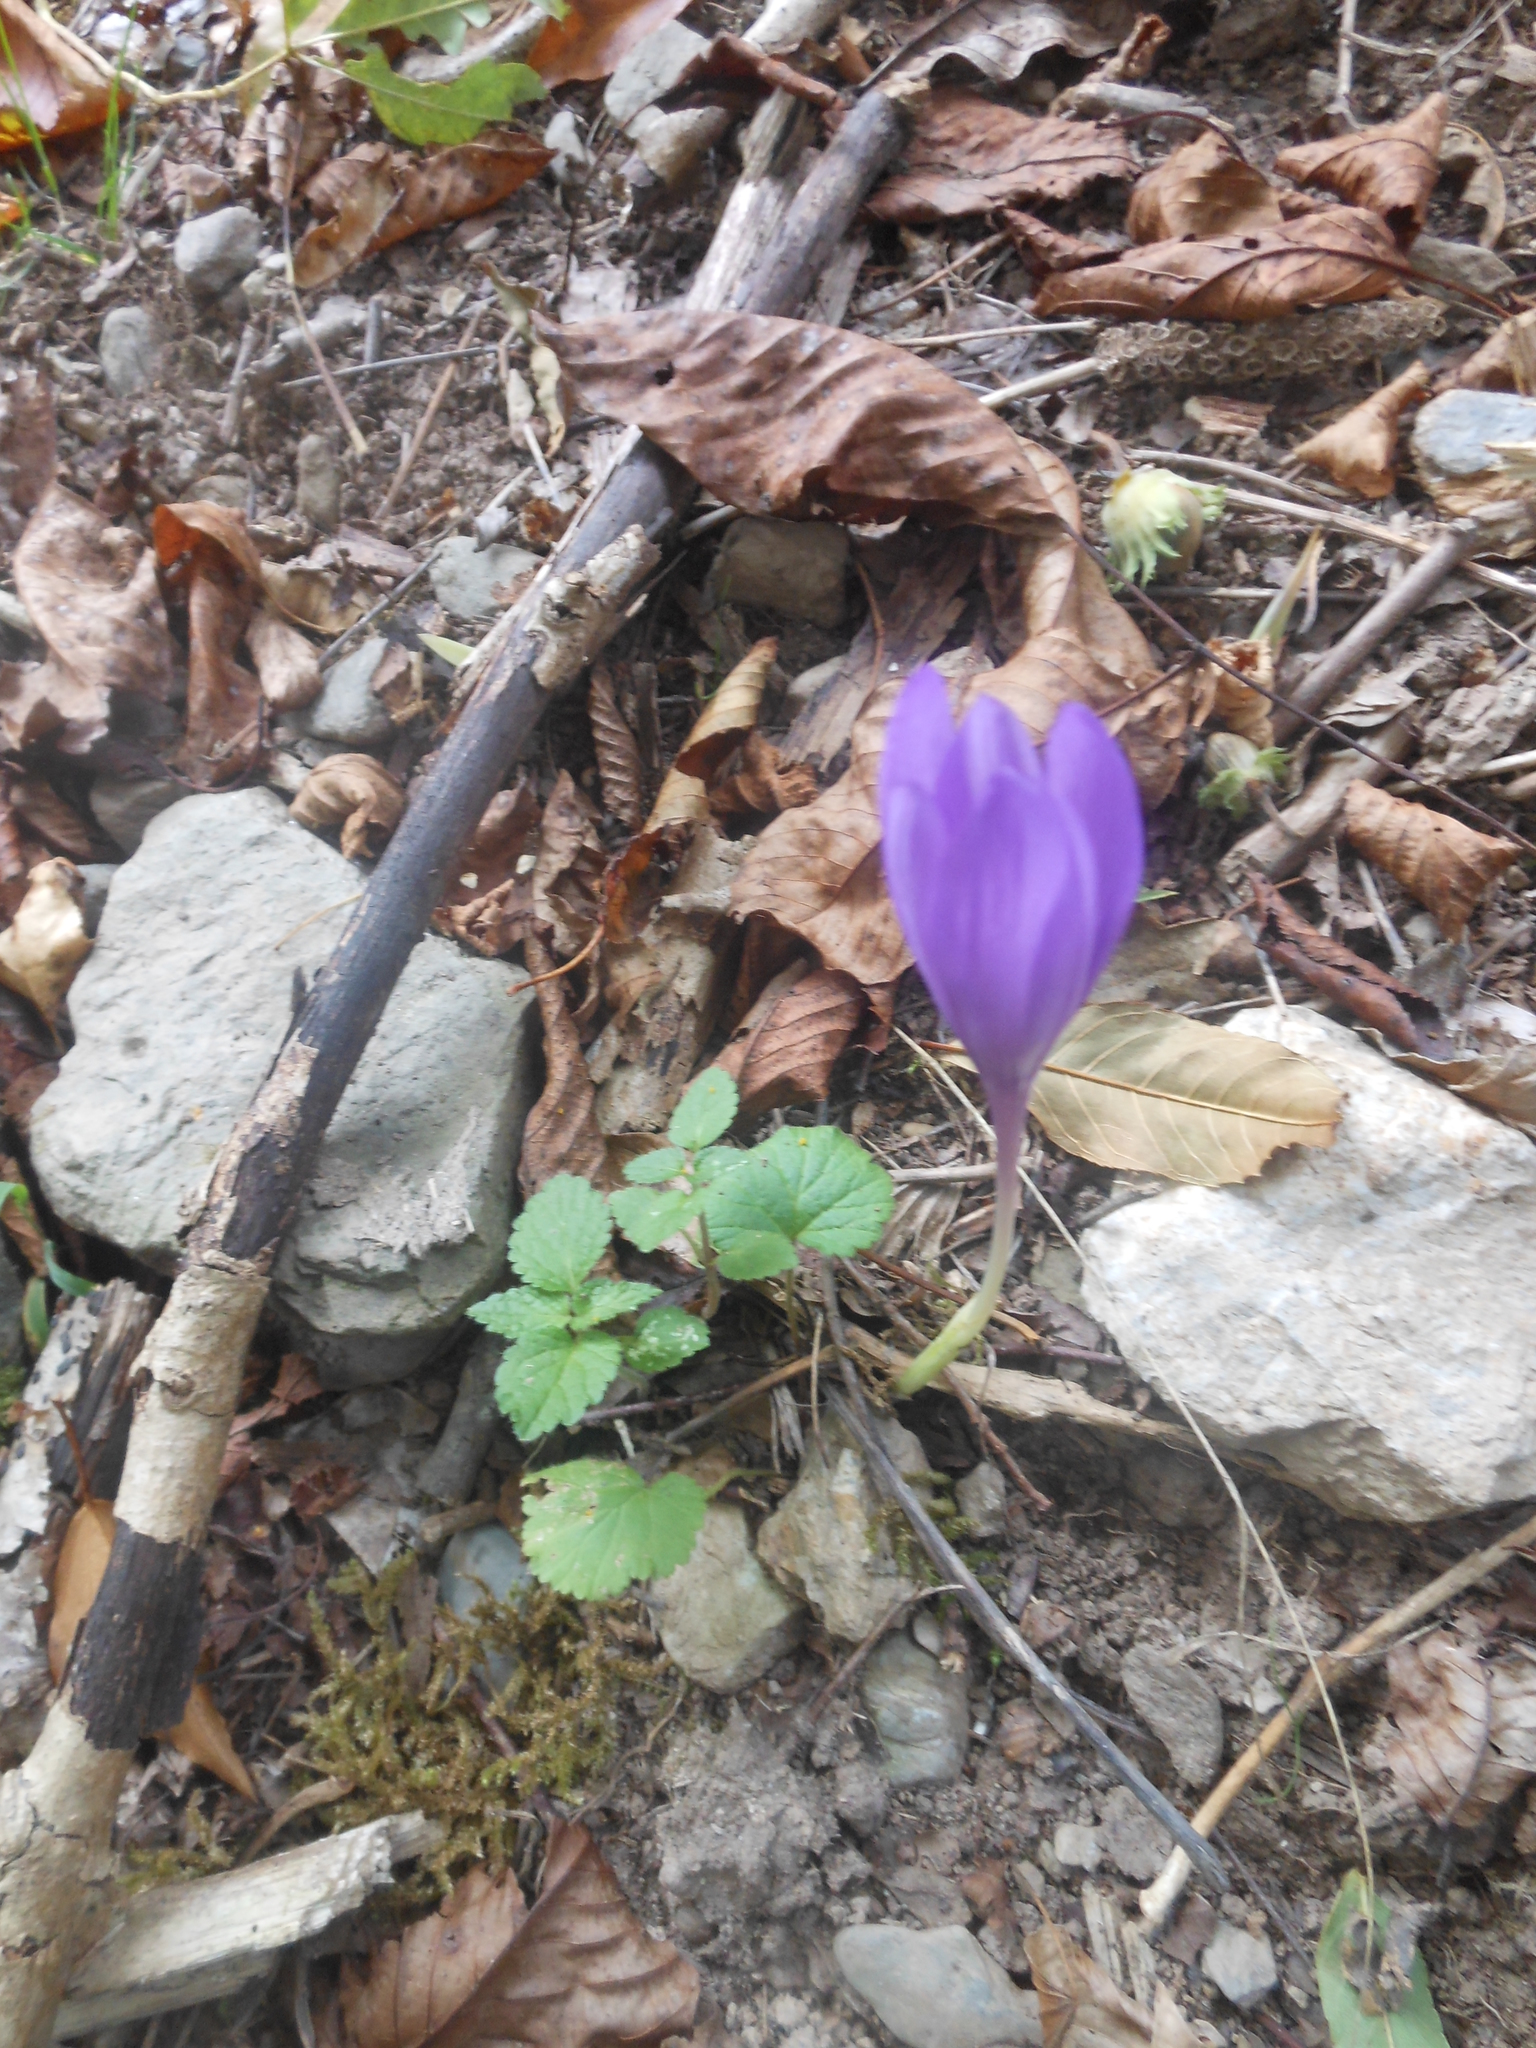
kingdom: Plantae
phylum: Tracheophyta
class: Liliopsida
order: Asparagales
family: Iridaceae
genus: Crocus
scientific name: Crocus nudiflorus
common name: Autumn crocus
